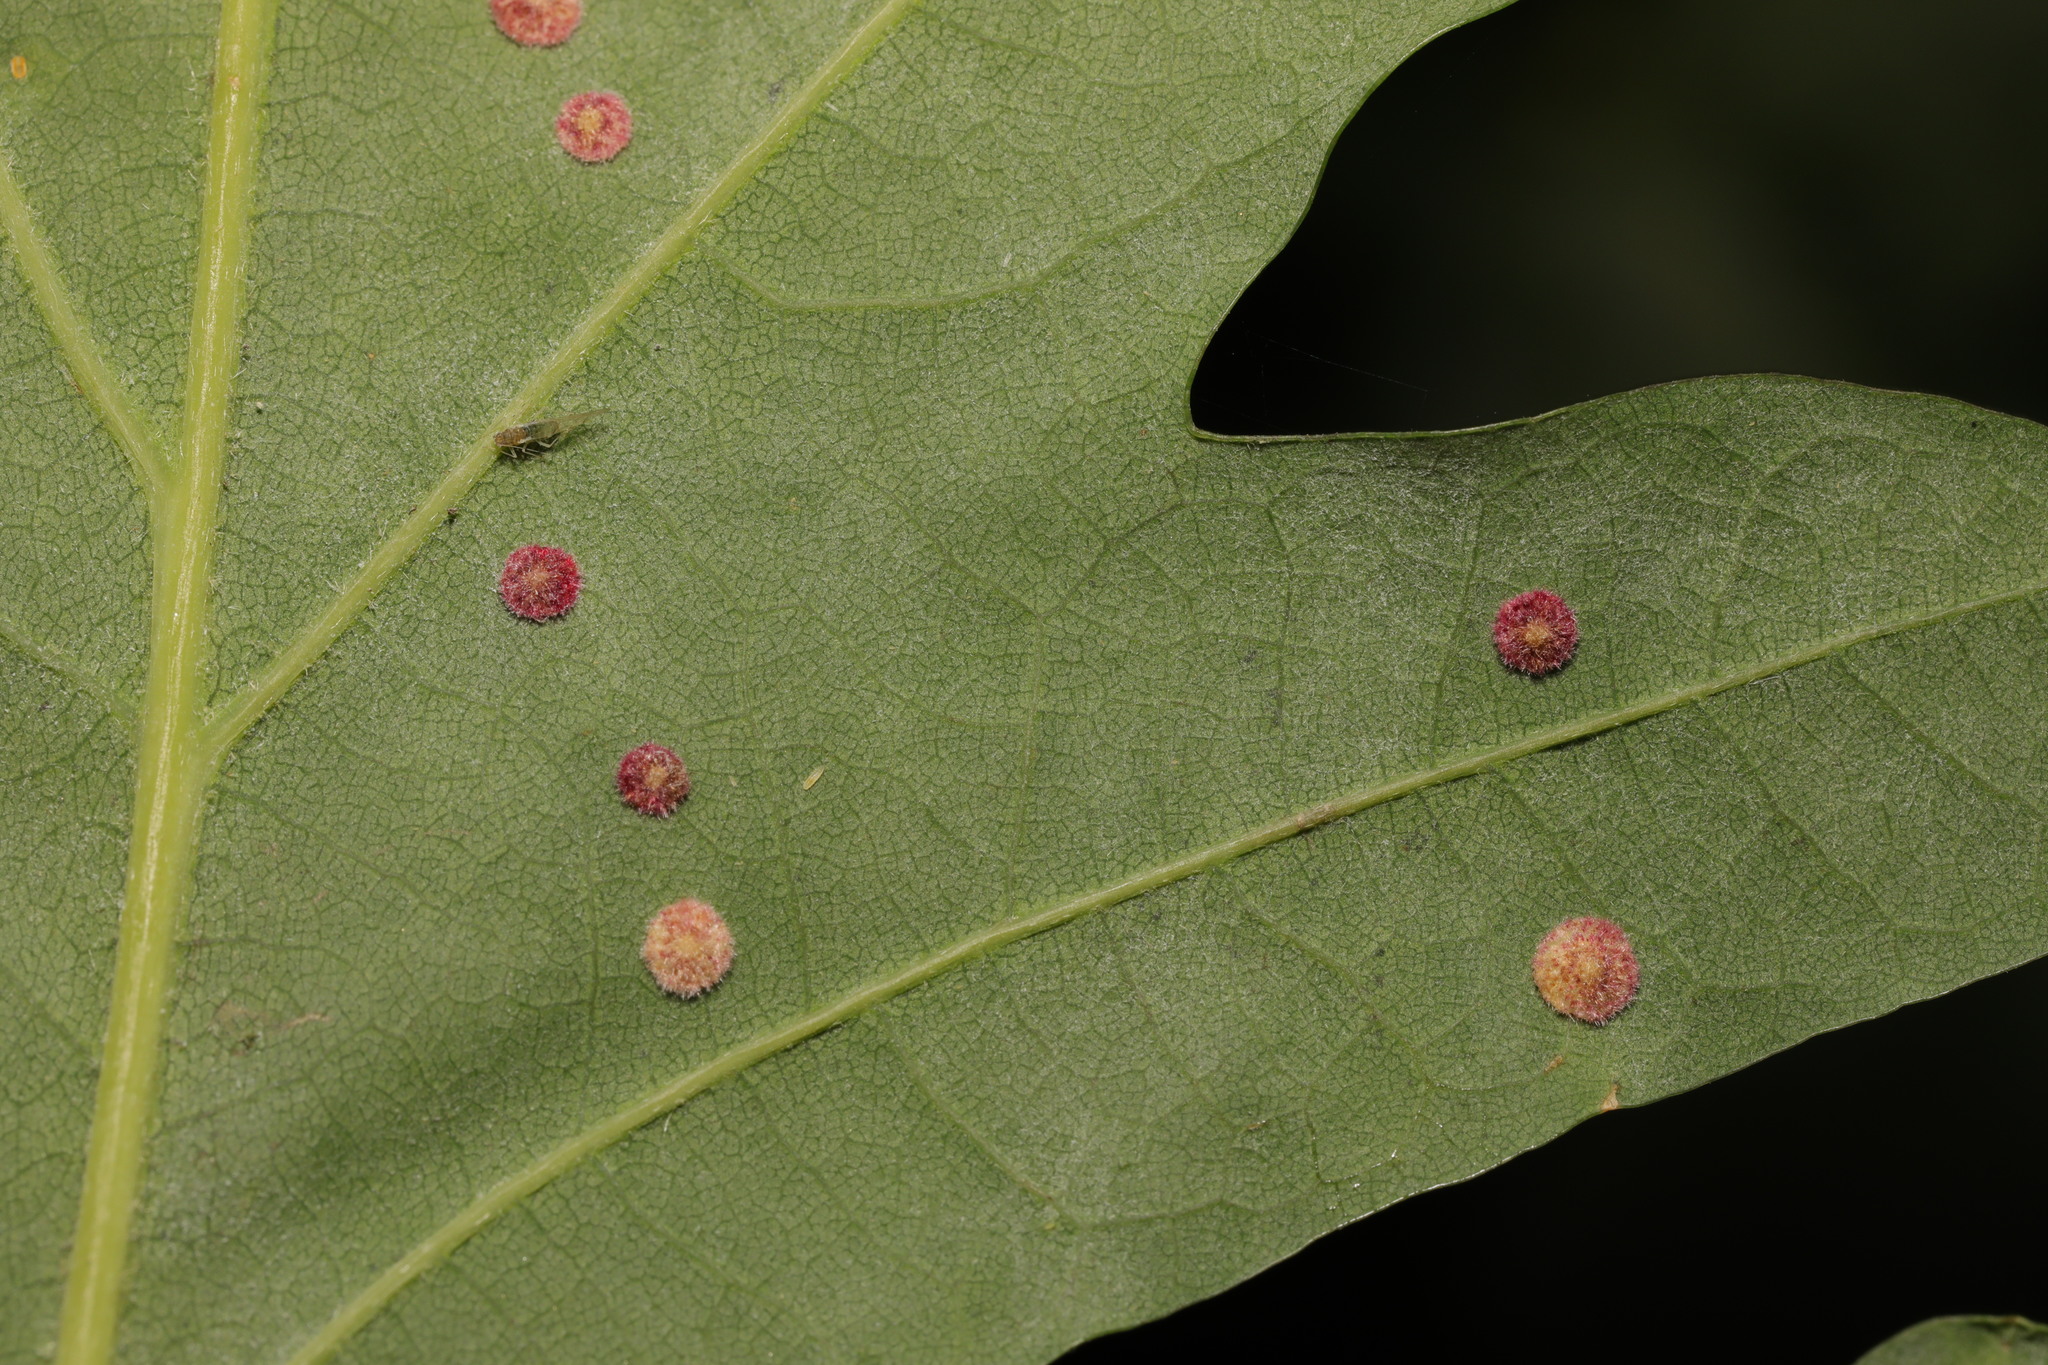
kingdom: Animalia
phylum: Arthropoda
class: Insecta
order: Hymenoptera
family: Cynipidae
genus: Neuroterus
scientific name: Neuroterus quercusbaccarum
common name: Common spangle gall
